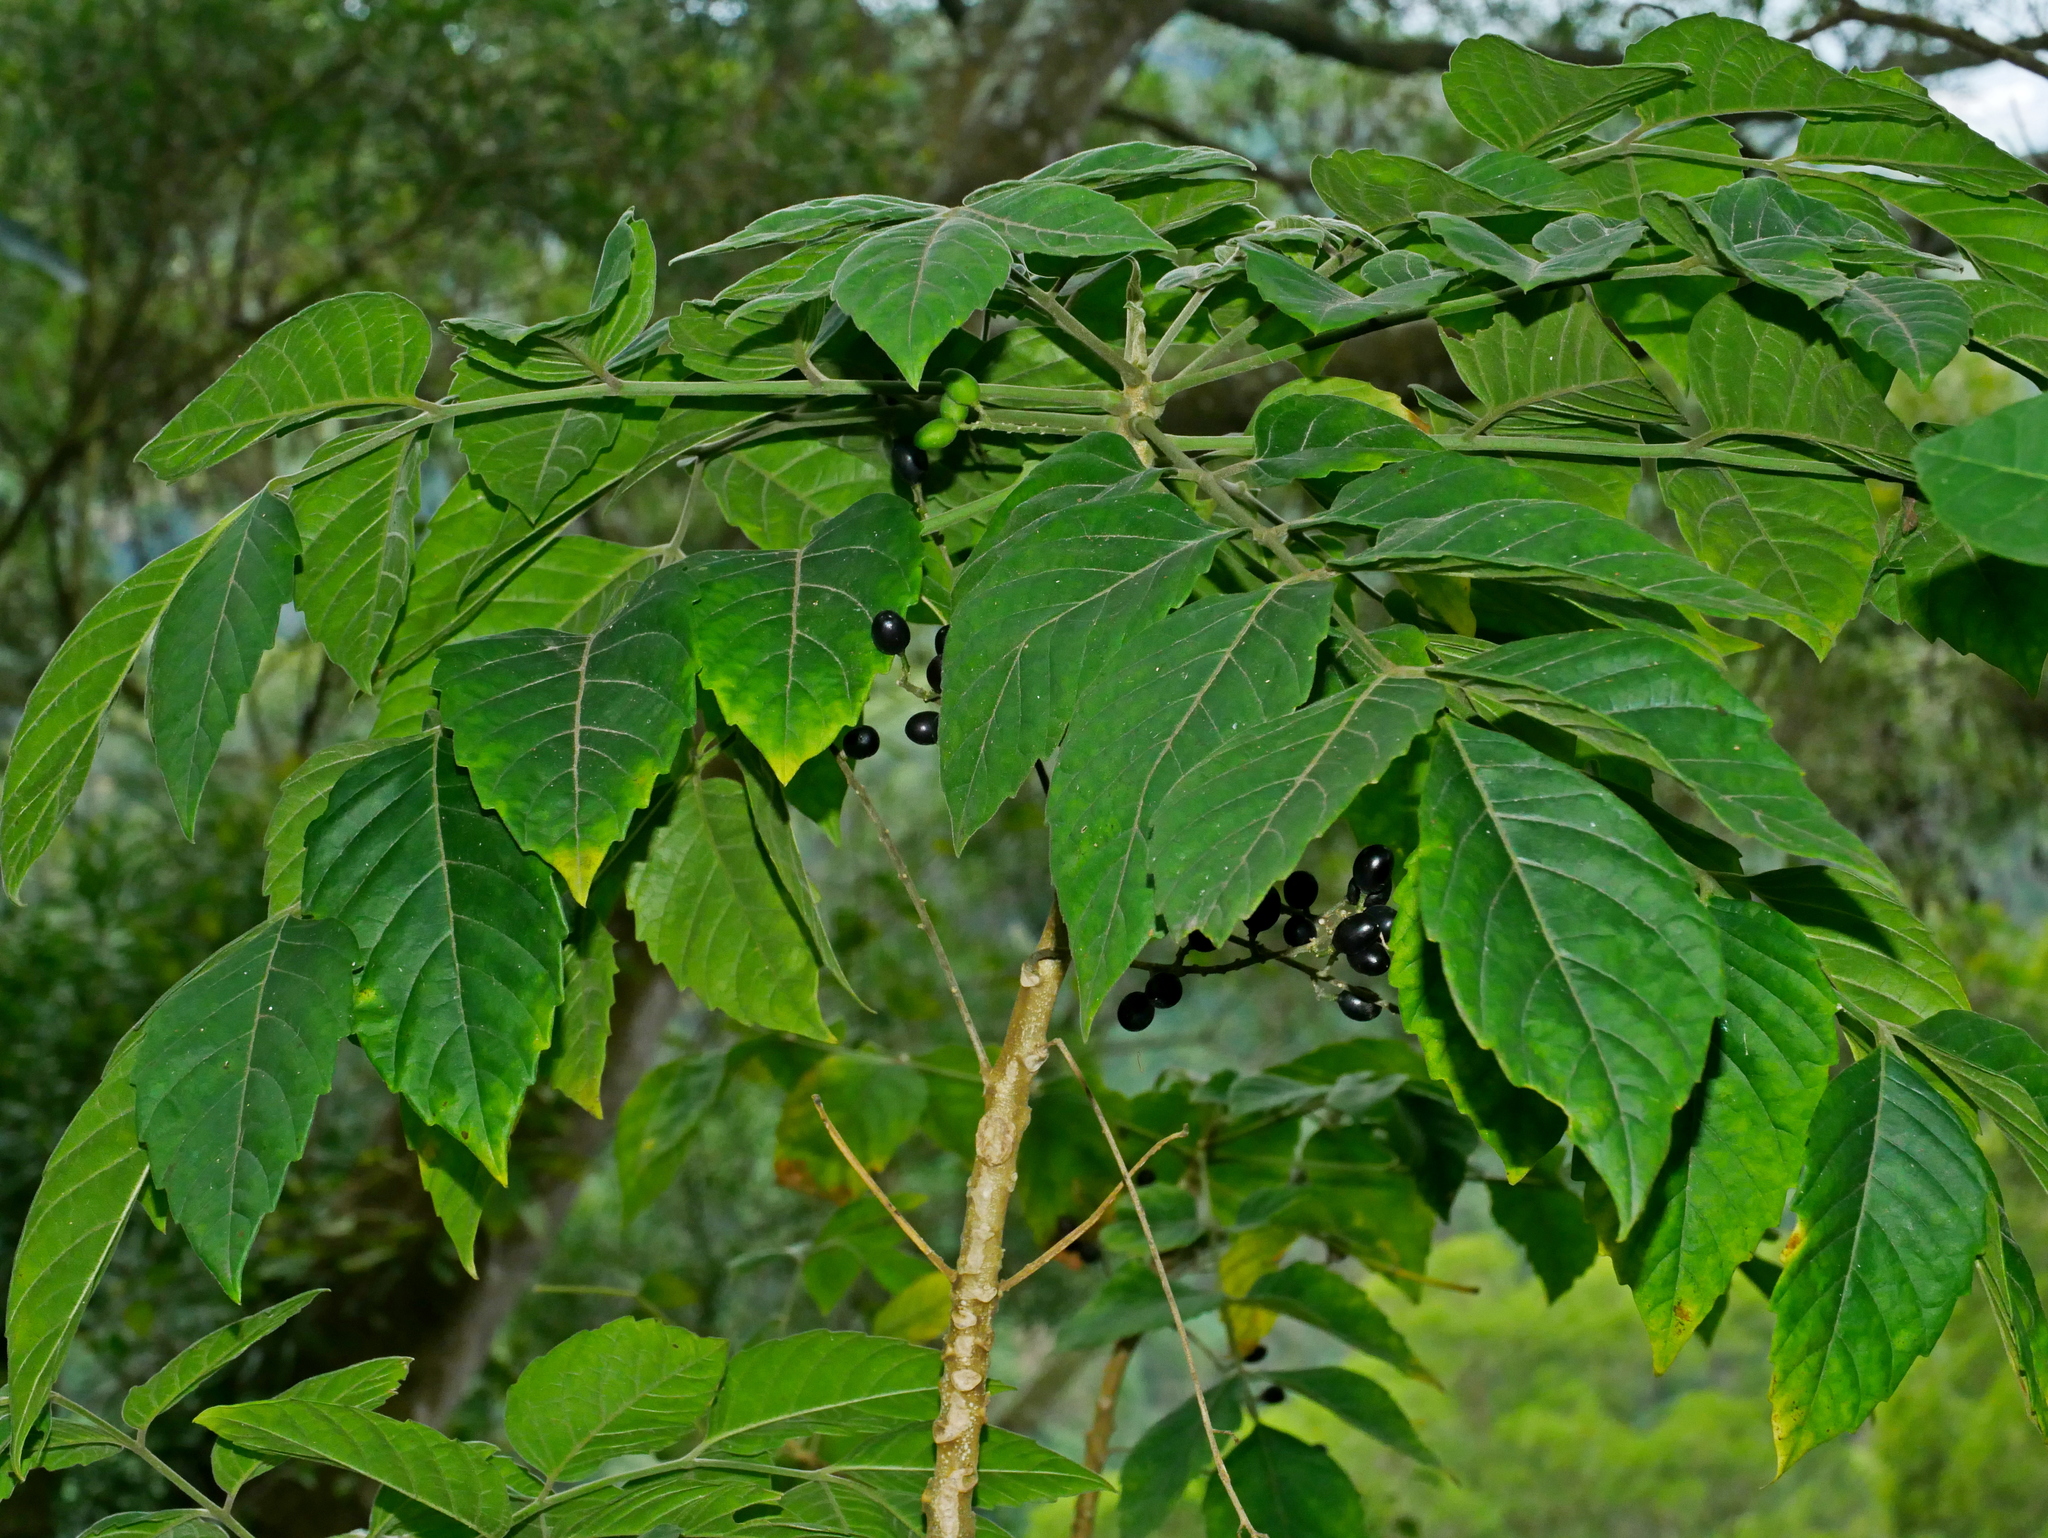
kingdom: Plantae
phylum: Tracheophyta
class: Magnoliopsida
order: Sapindales
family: Simaroubaceae
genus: Brucea
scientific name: Brucea javanica
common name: Macassar kernels
